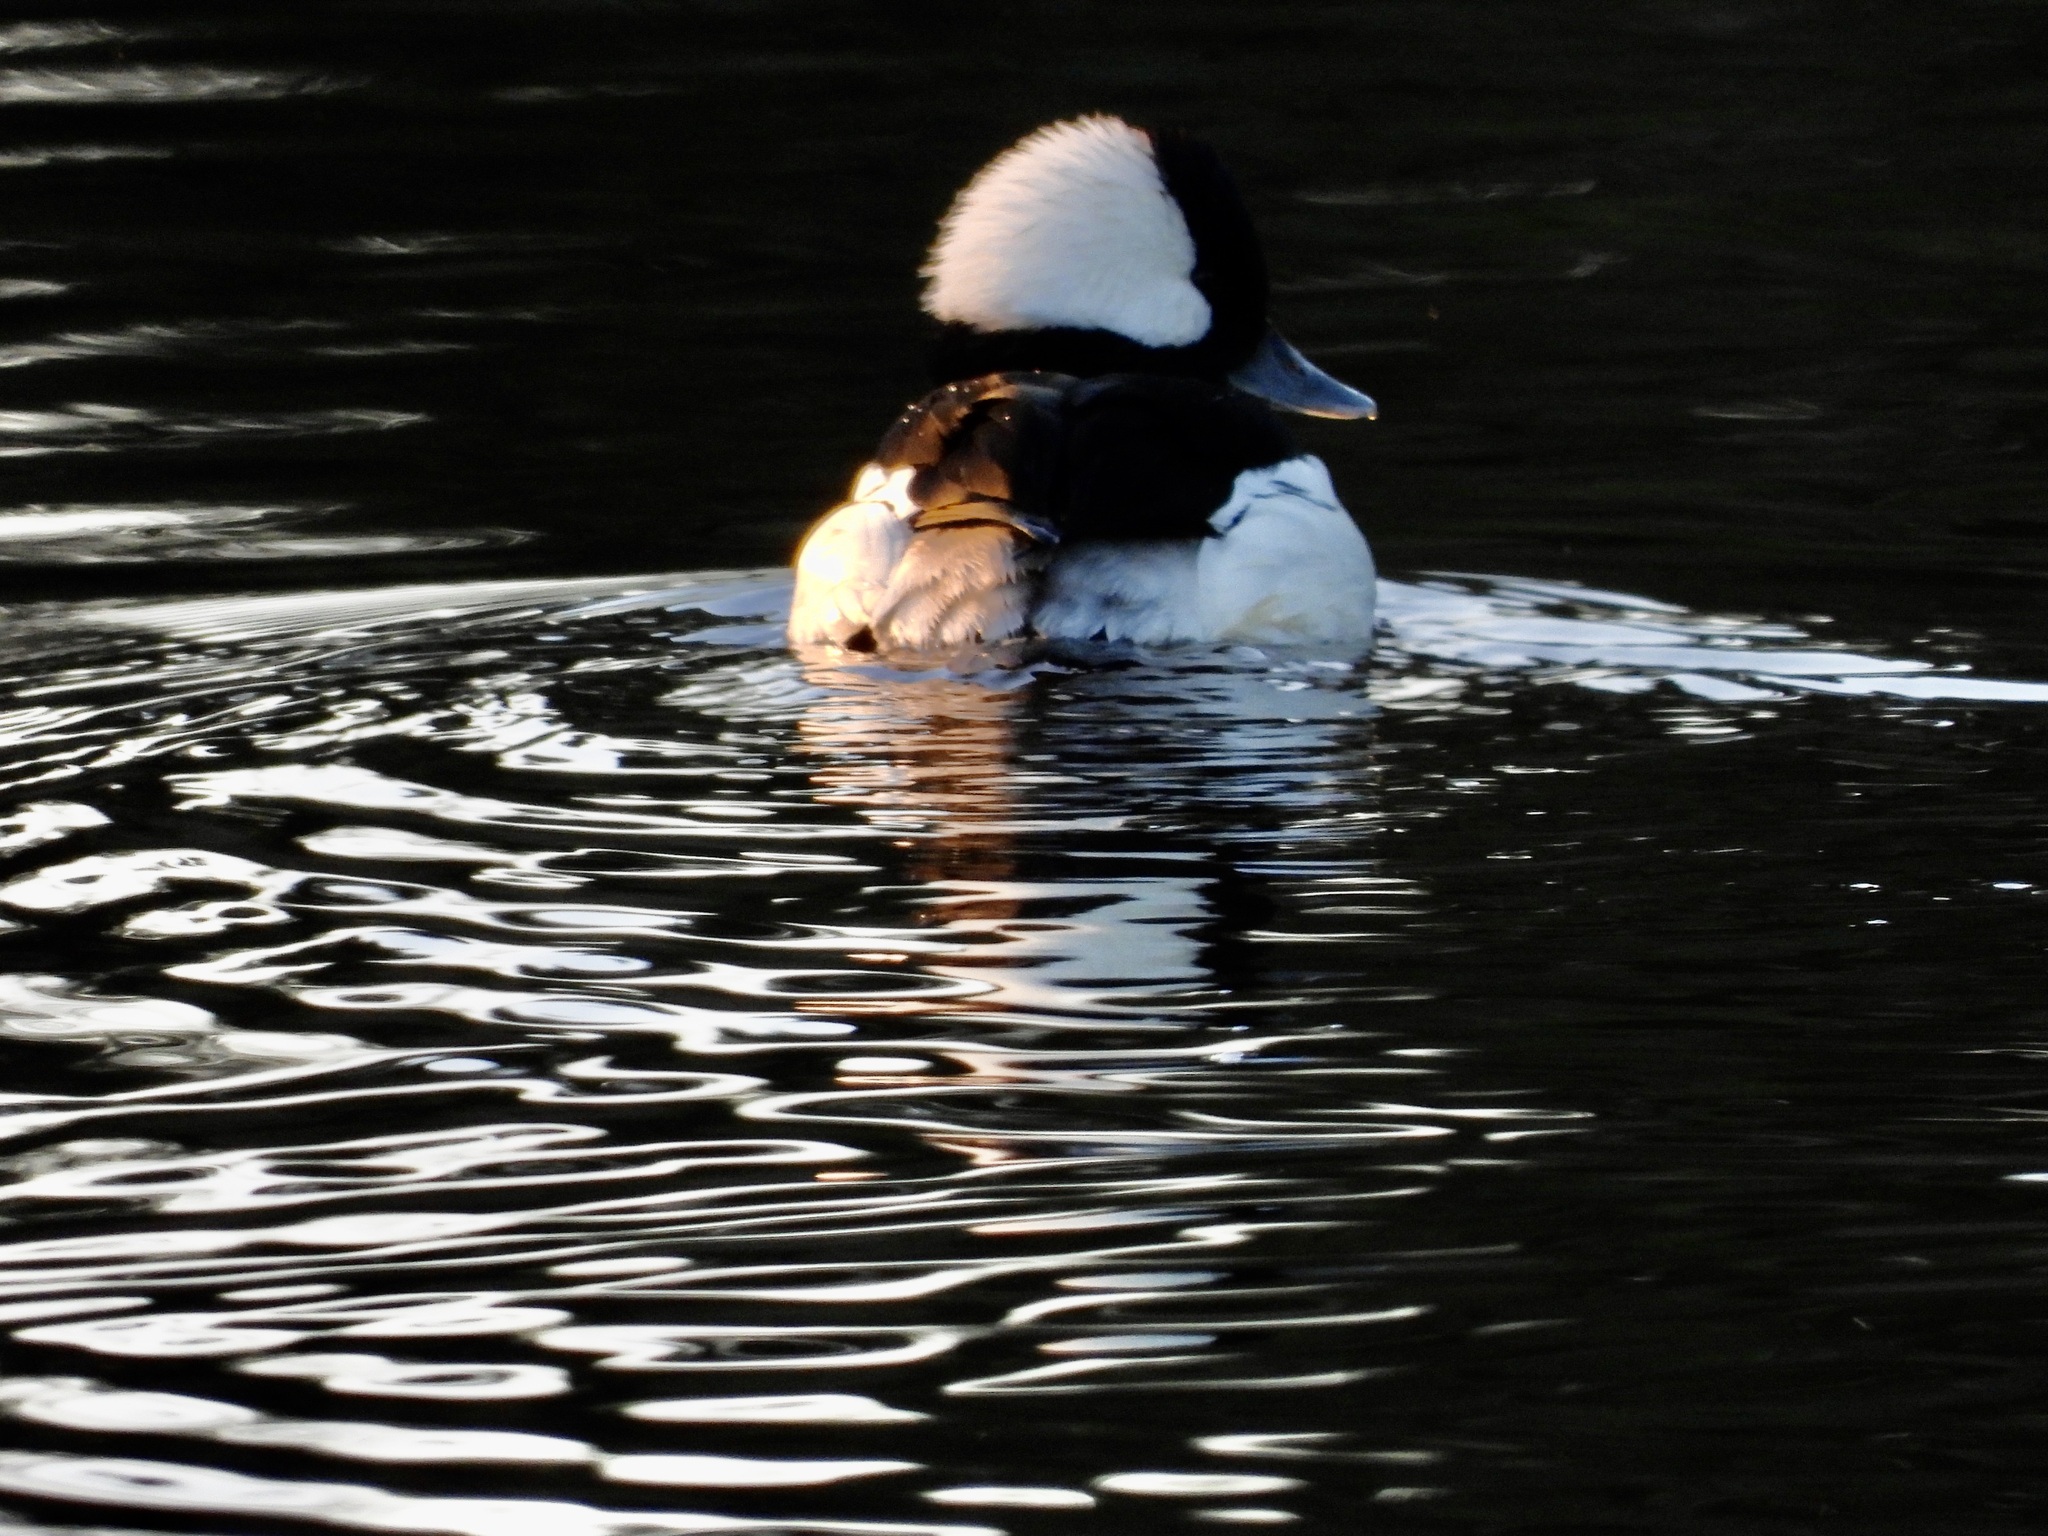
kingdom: Animalia
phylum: Chordata
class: Aves
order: Anseriformes
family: Anatidae
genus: Bucephala
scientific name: Bucephala albeola
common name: Bufflehead
